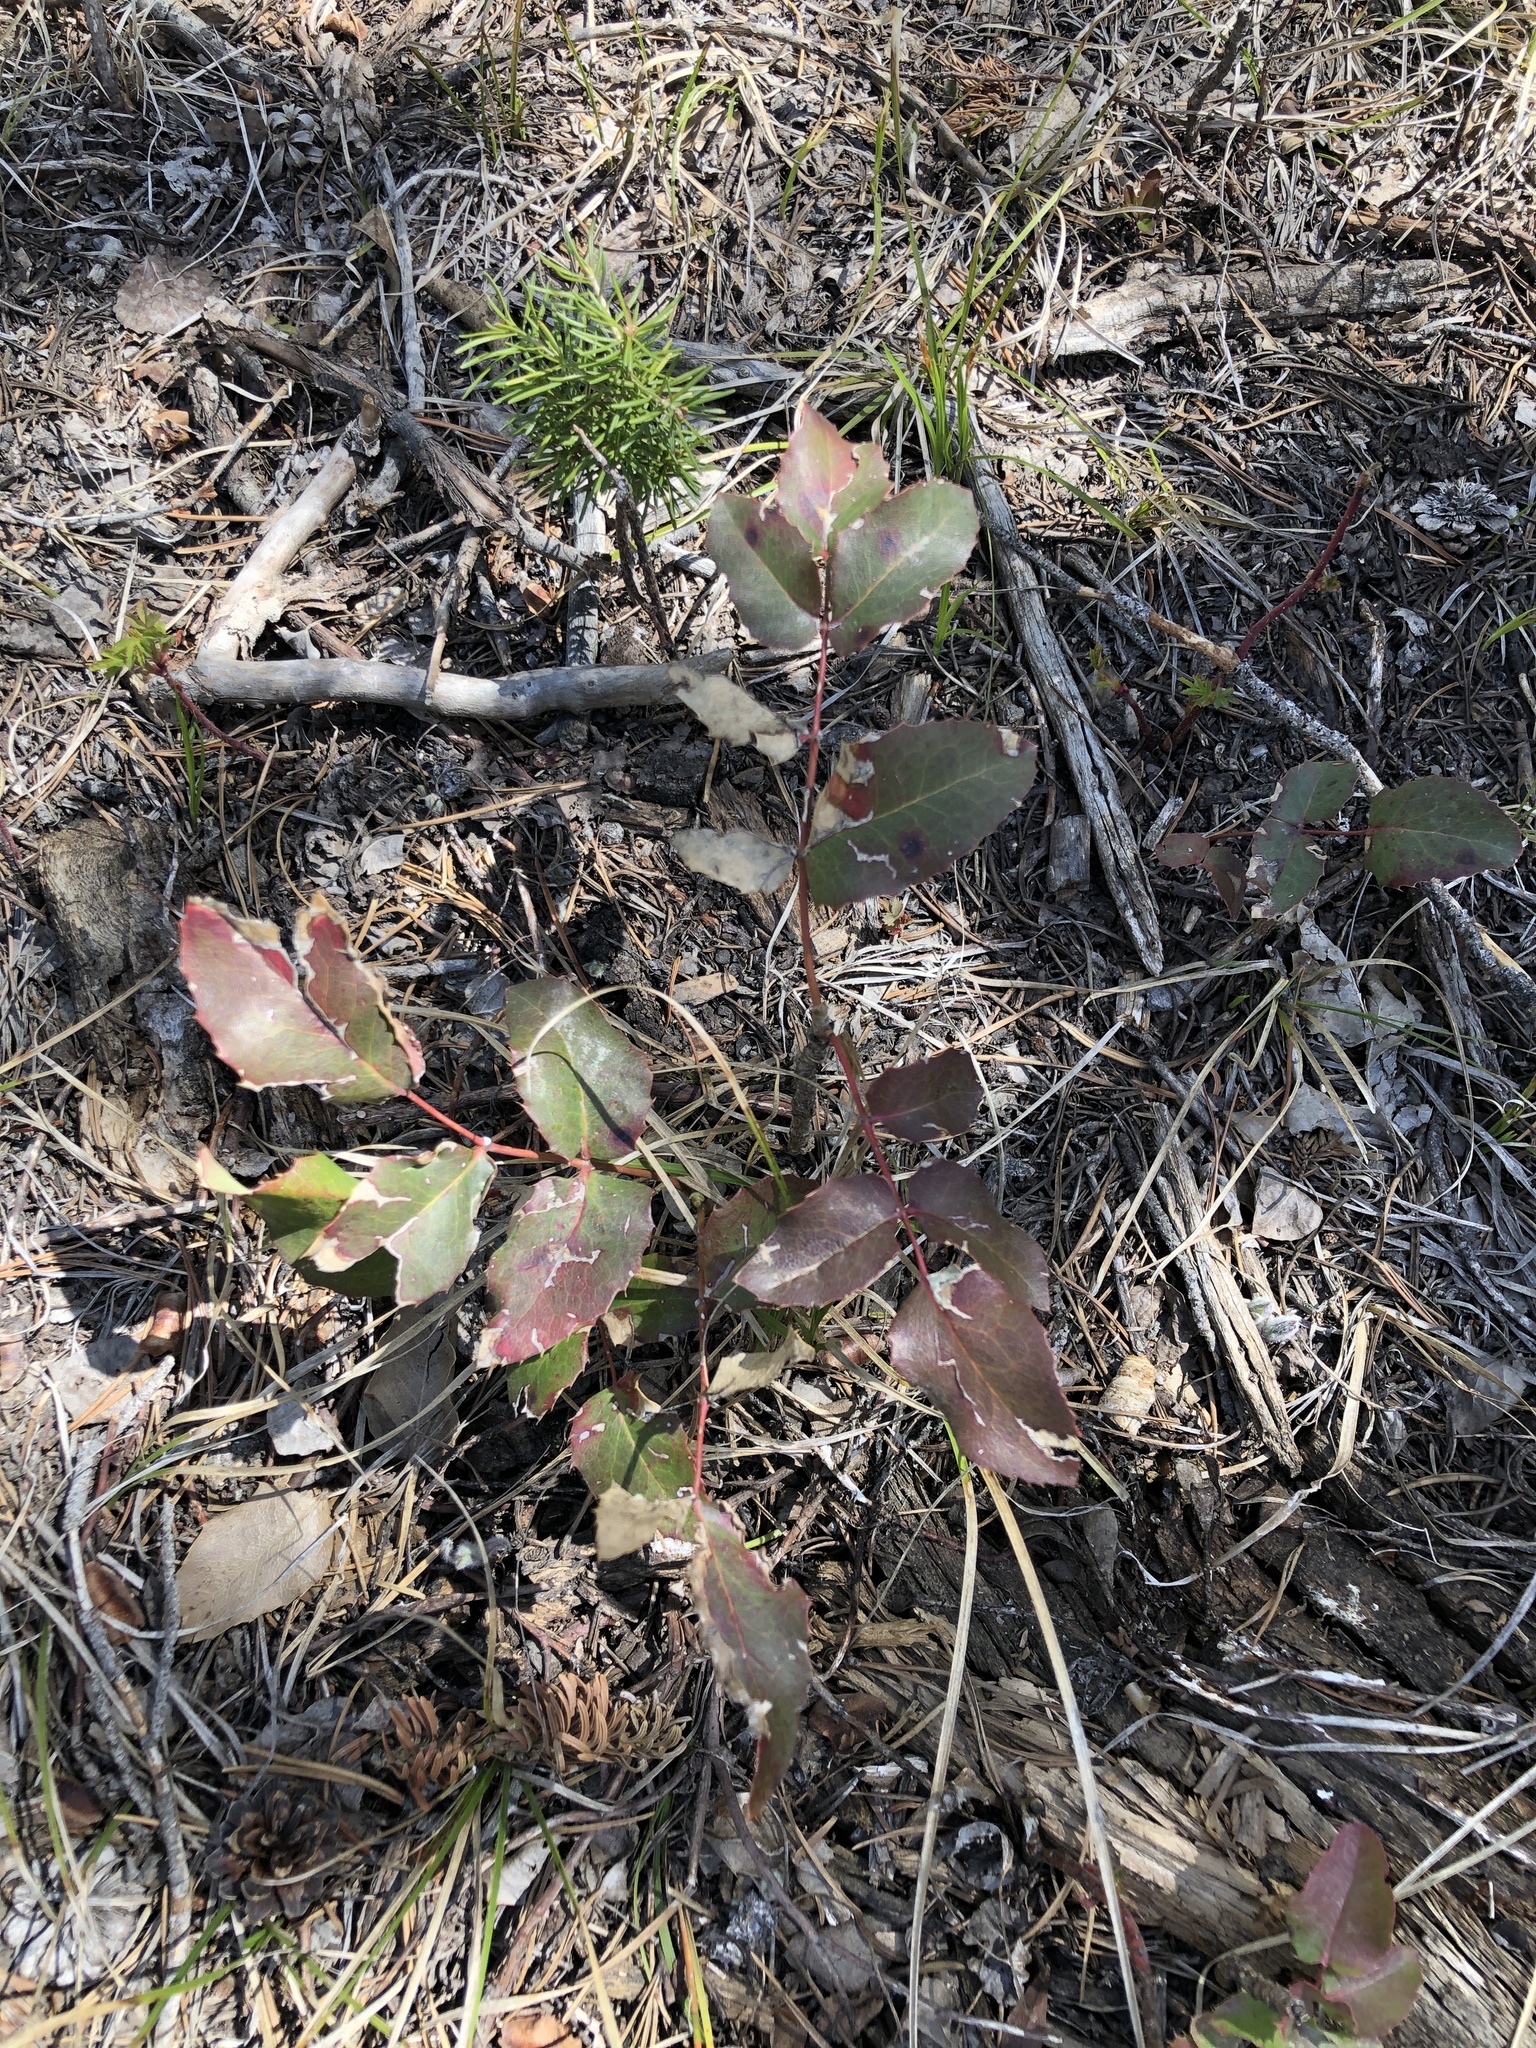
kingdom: Plantae
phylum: Tracheophyta
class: Magnoliopsida
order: Ranunculales
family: Berberidaceae
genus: Mahonia
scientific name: Mahonia repens
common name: Creeping oregon-grape
